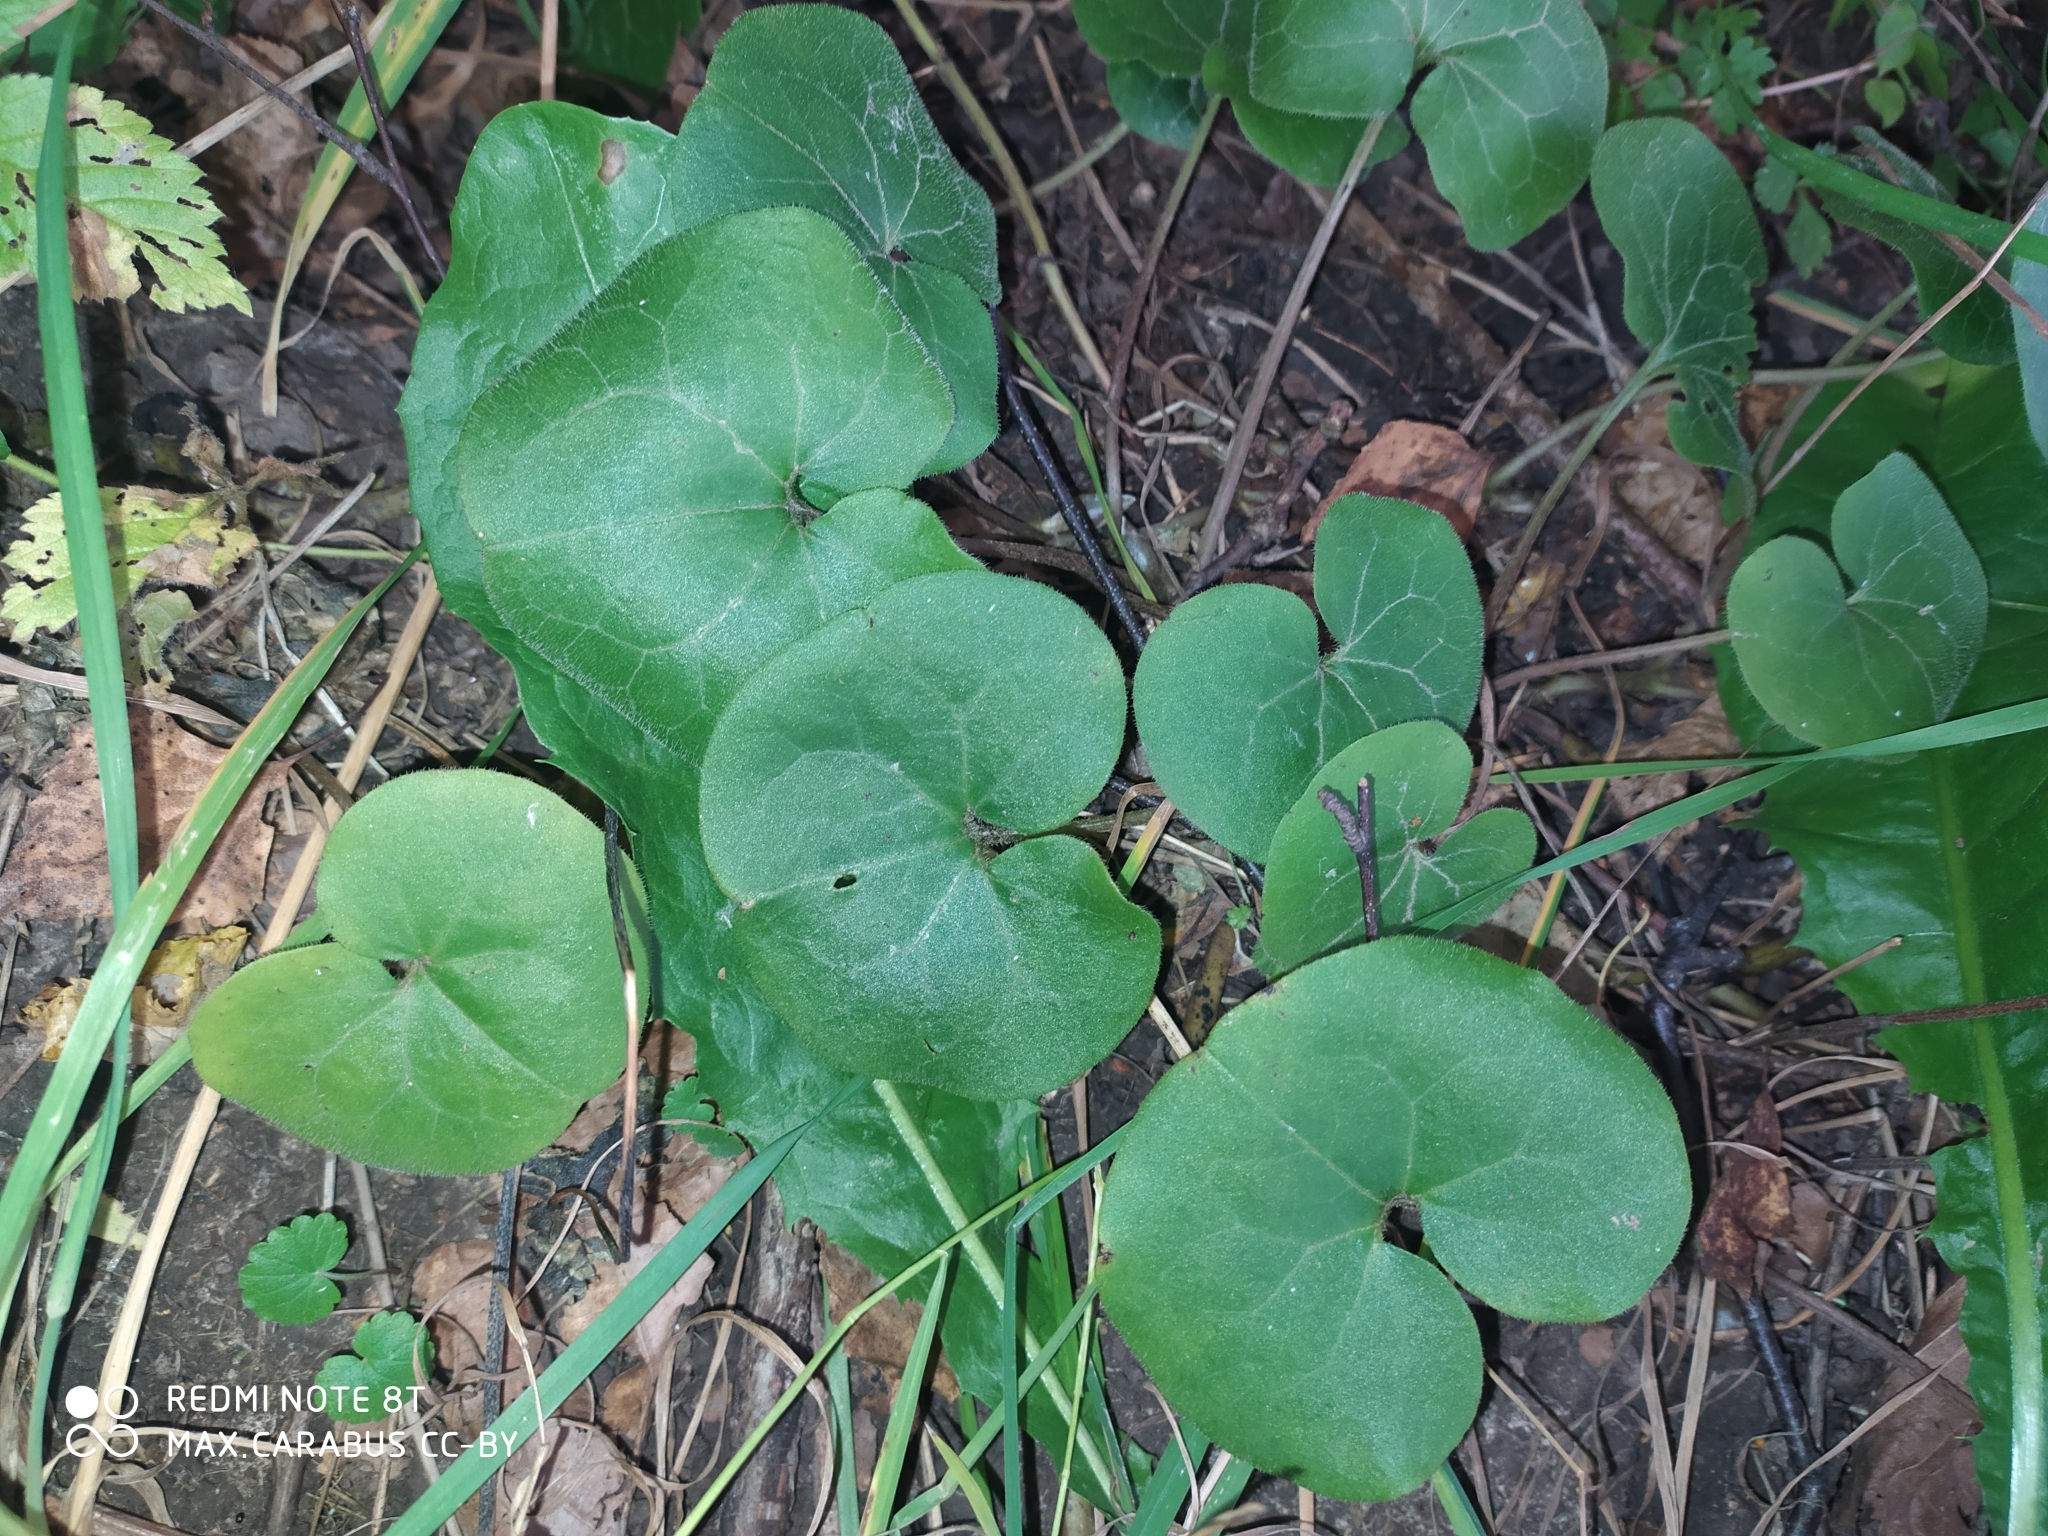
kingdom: Plantae
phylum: Tracheophyta
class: Magnoliopsida
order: Piperales
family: Aristolochiaceae
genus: Asarum
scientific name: Asarum europaeum
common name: Asarabacca
